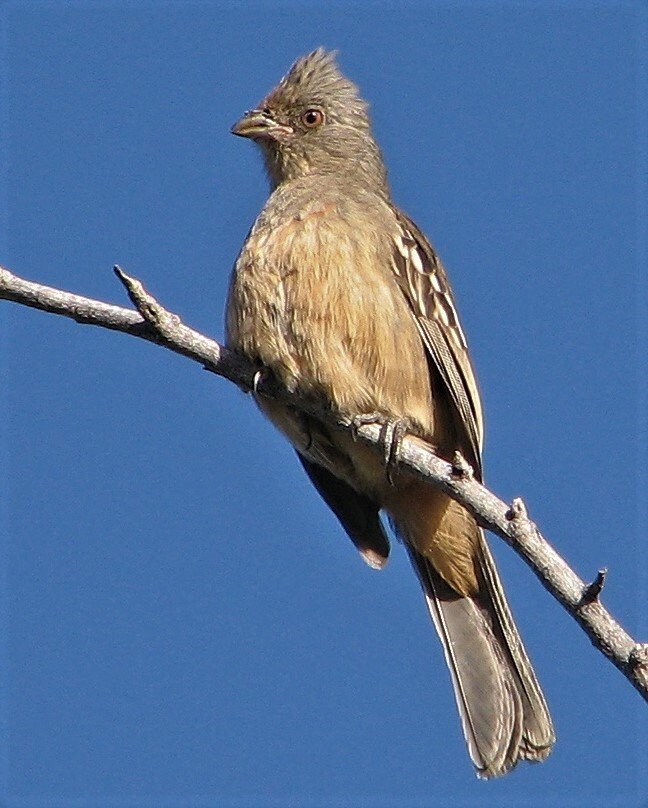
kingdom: Animalia
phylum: Chordata
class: Aves
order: Passeriformes
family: Cotingidae
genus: Phytotoma
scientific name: Phytotoma rutila
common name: White-tipped plantcutter
